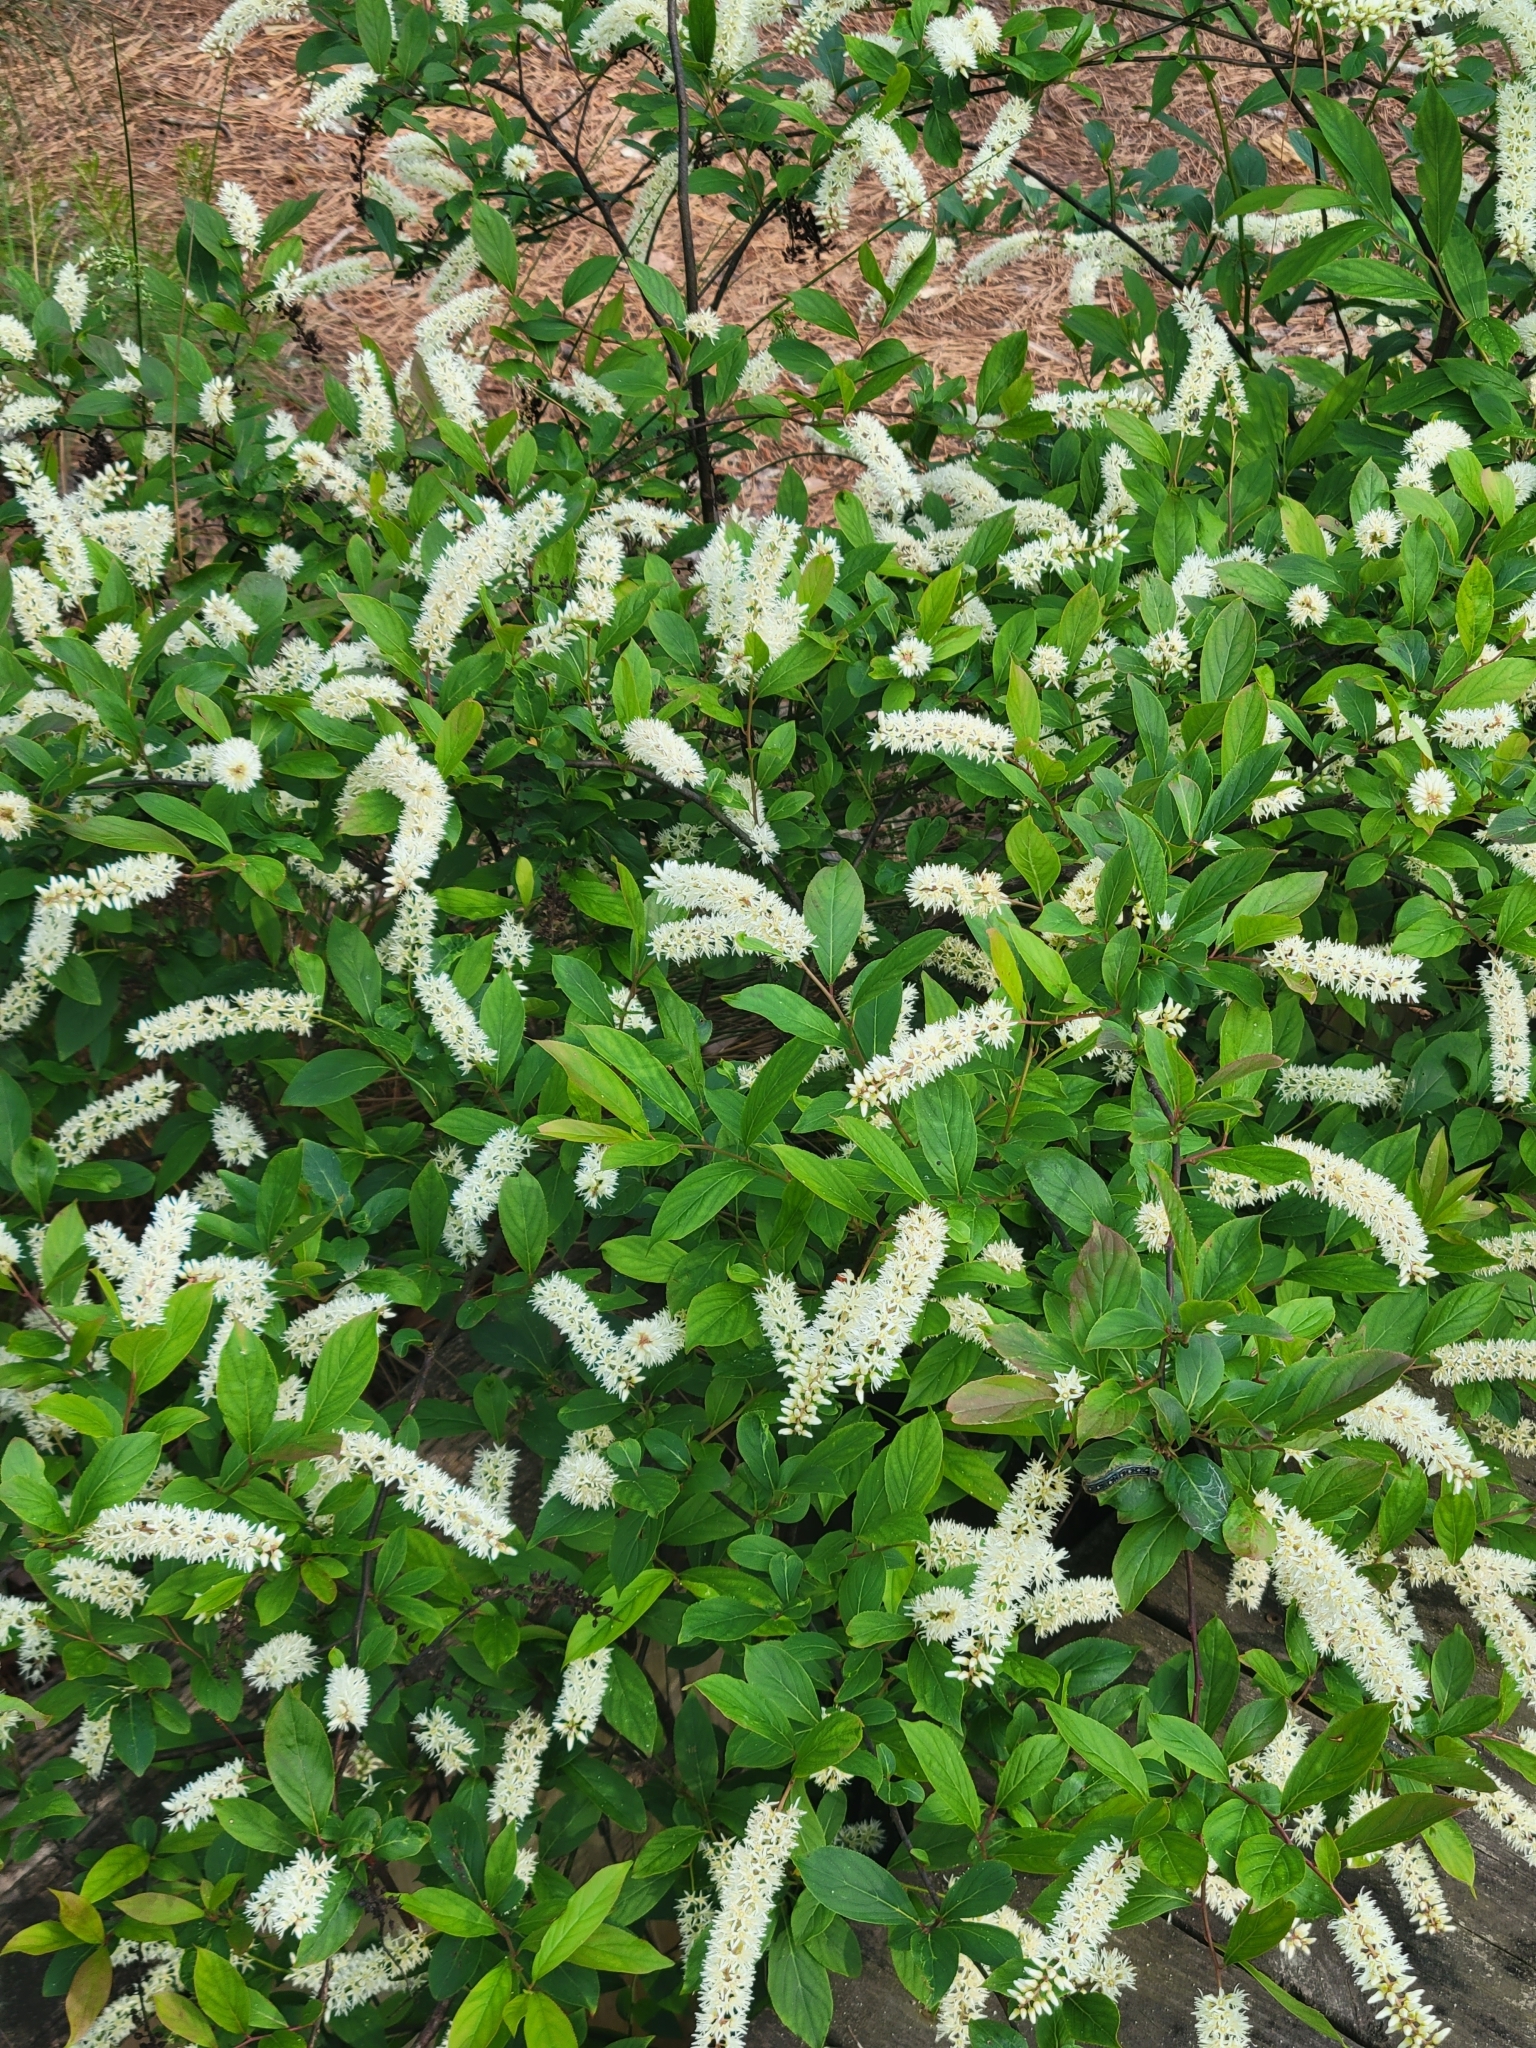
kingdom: Plantae
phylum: Tracheophyta
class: Magnoliopsida
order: Saxifragales
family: Iteaceae
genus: Itea
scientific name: Itea virginica
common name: Sweetspire
